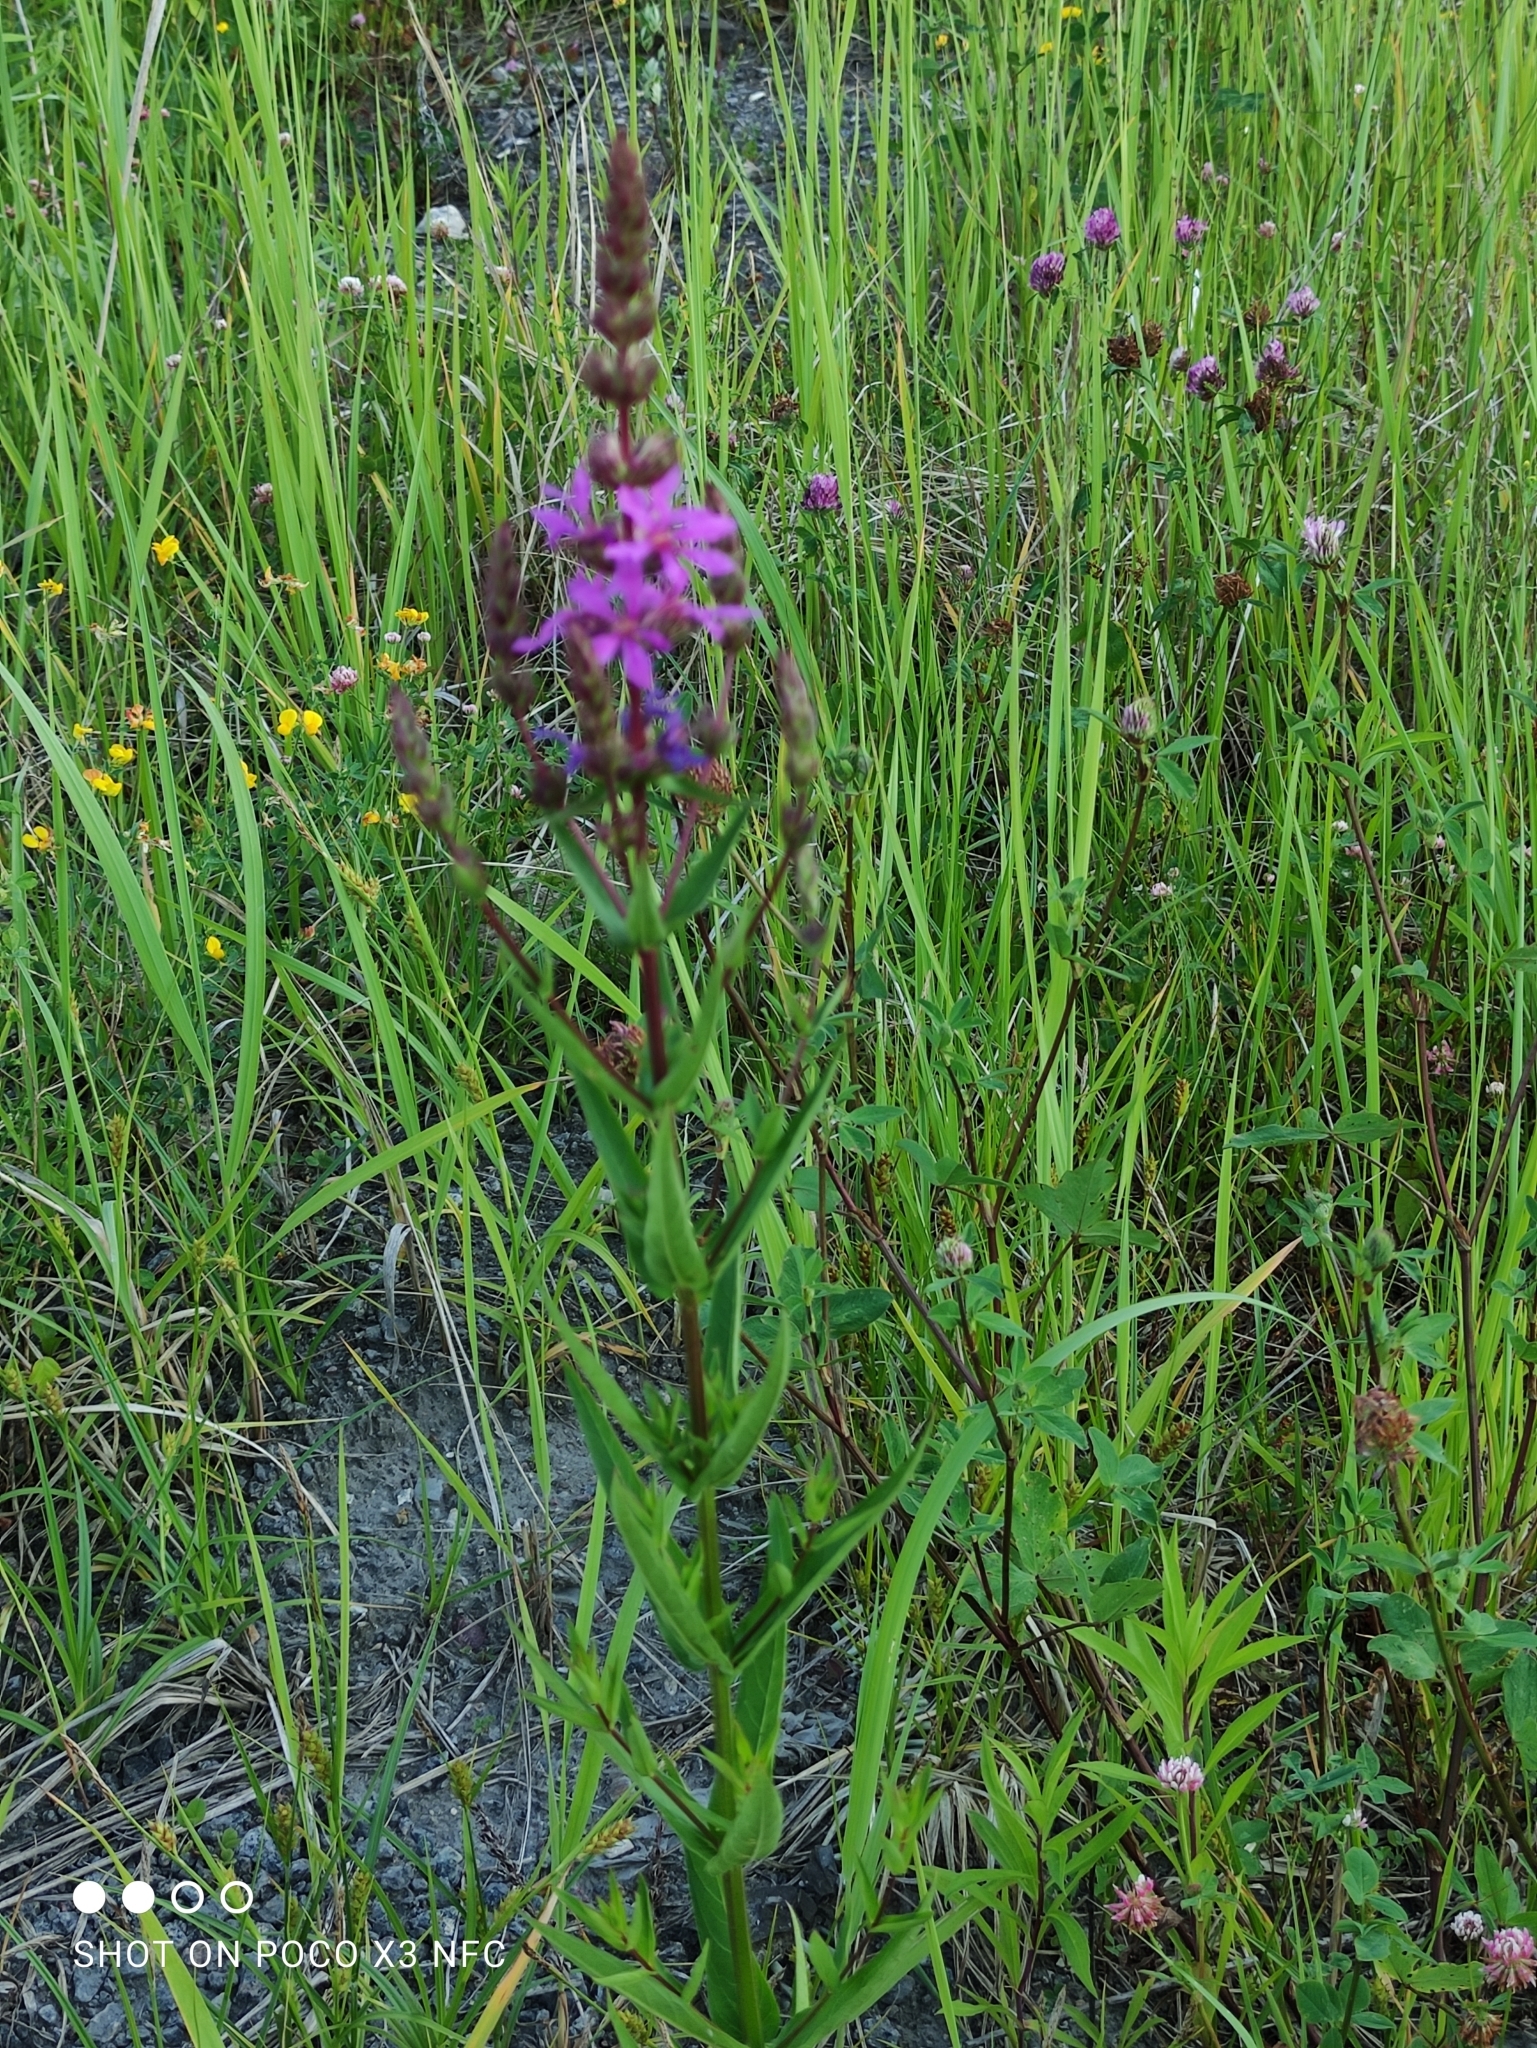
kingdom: Plantae
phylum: Tracheophyta
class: Magnoliopsida
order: Myrtales
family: Lythraceae
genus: Lythrum
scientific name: Lythrum salicaria
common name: Purple loosestrife
